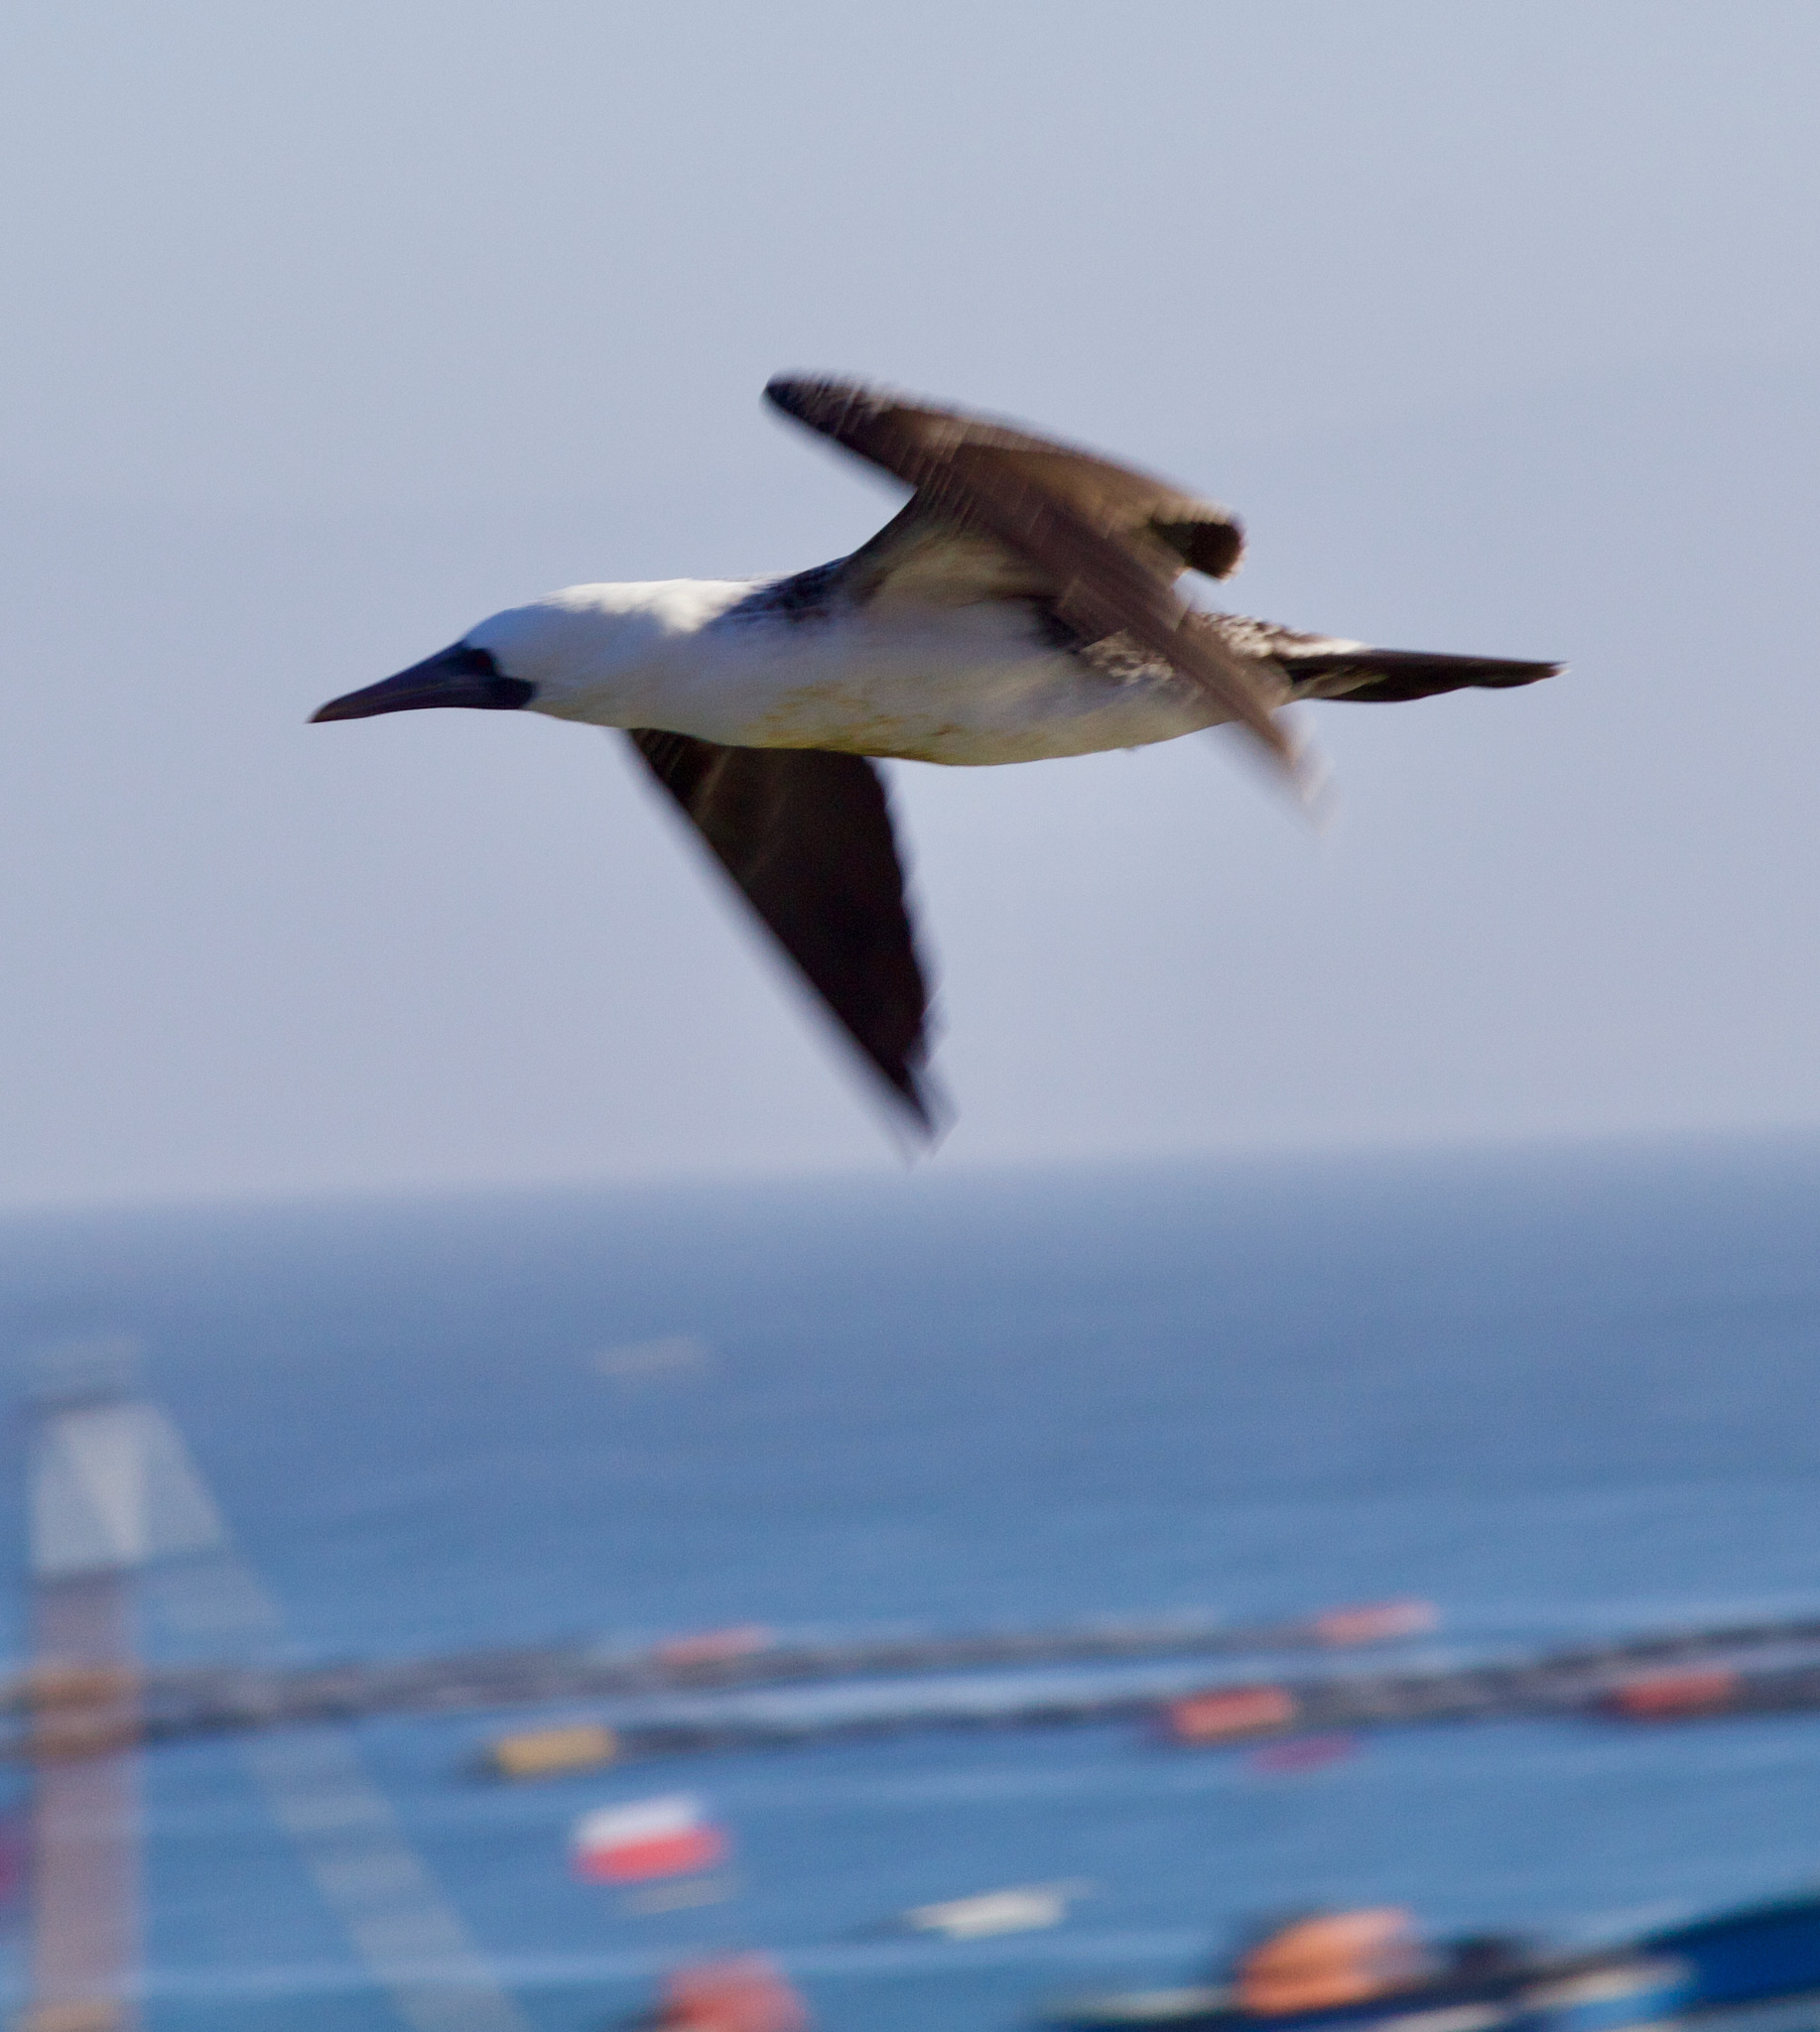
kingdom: Animalia
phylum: Chordata
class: Aves
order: Suliformes
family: Sulidae
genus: Sula
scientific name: Sula variegata
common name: Peruvian booby
